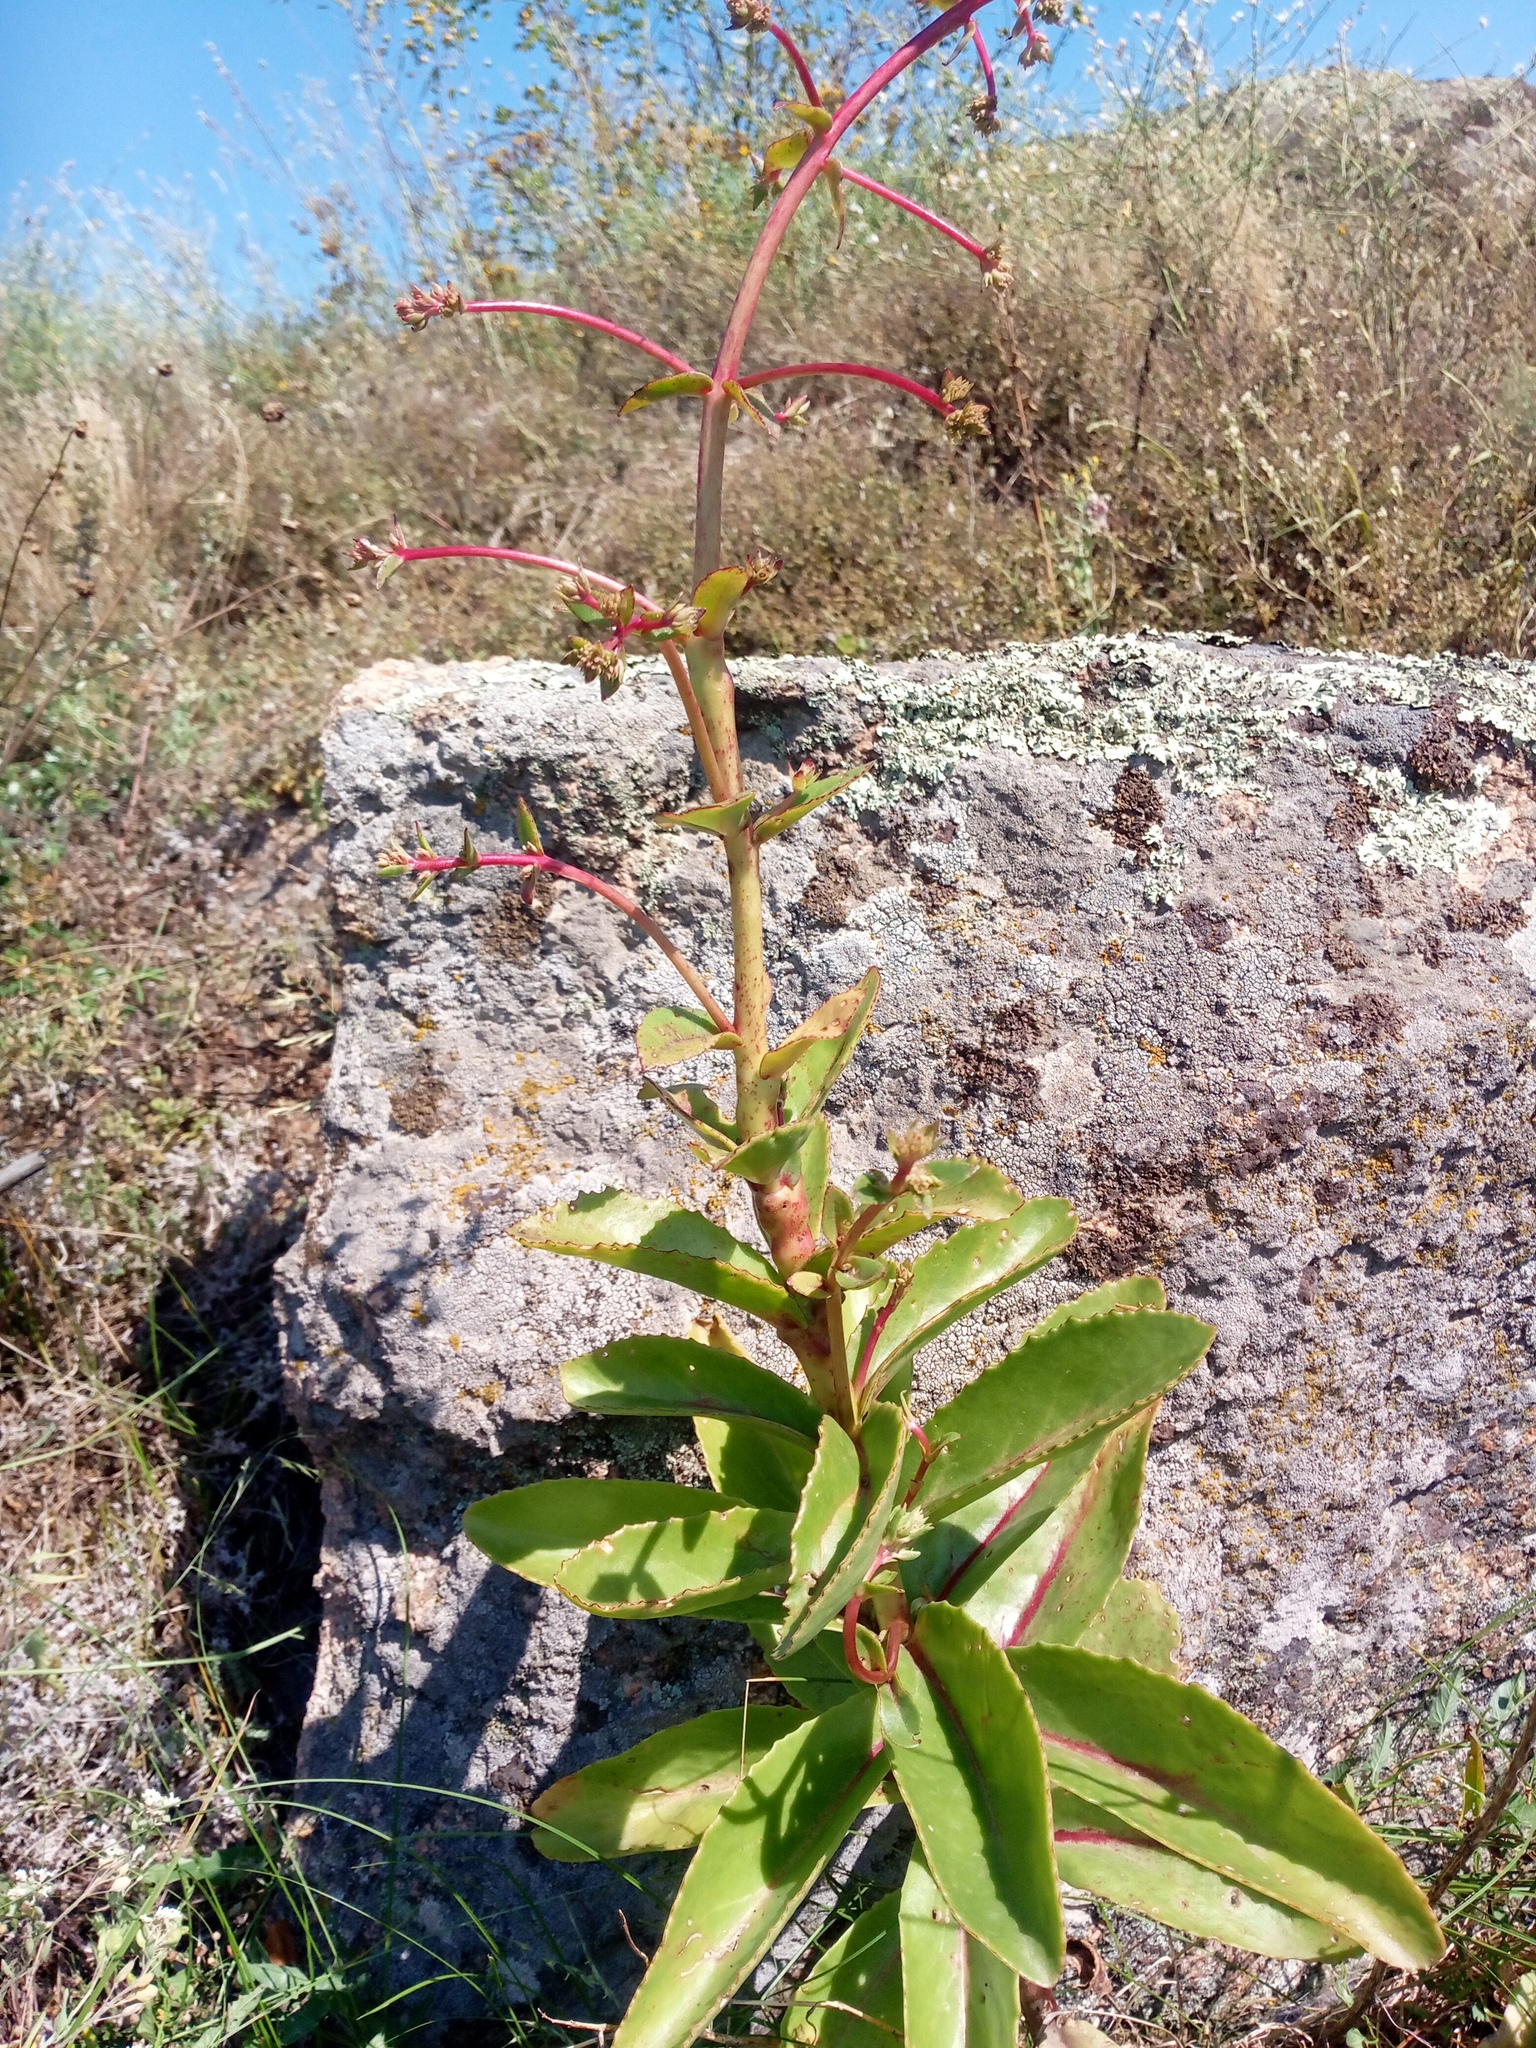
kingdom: Plantae
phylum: Tracheophyta
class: Magnoliopsida
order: Saxifragales
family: Crassulaceae
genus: Hylotelephium
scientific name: Hylotelephium maximum
